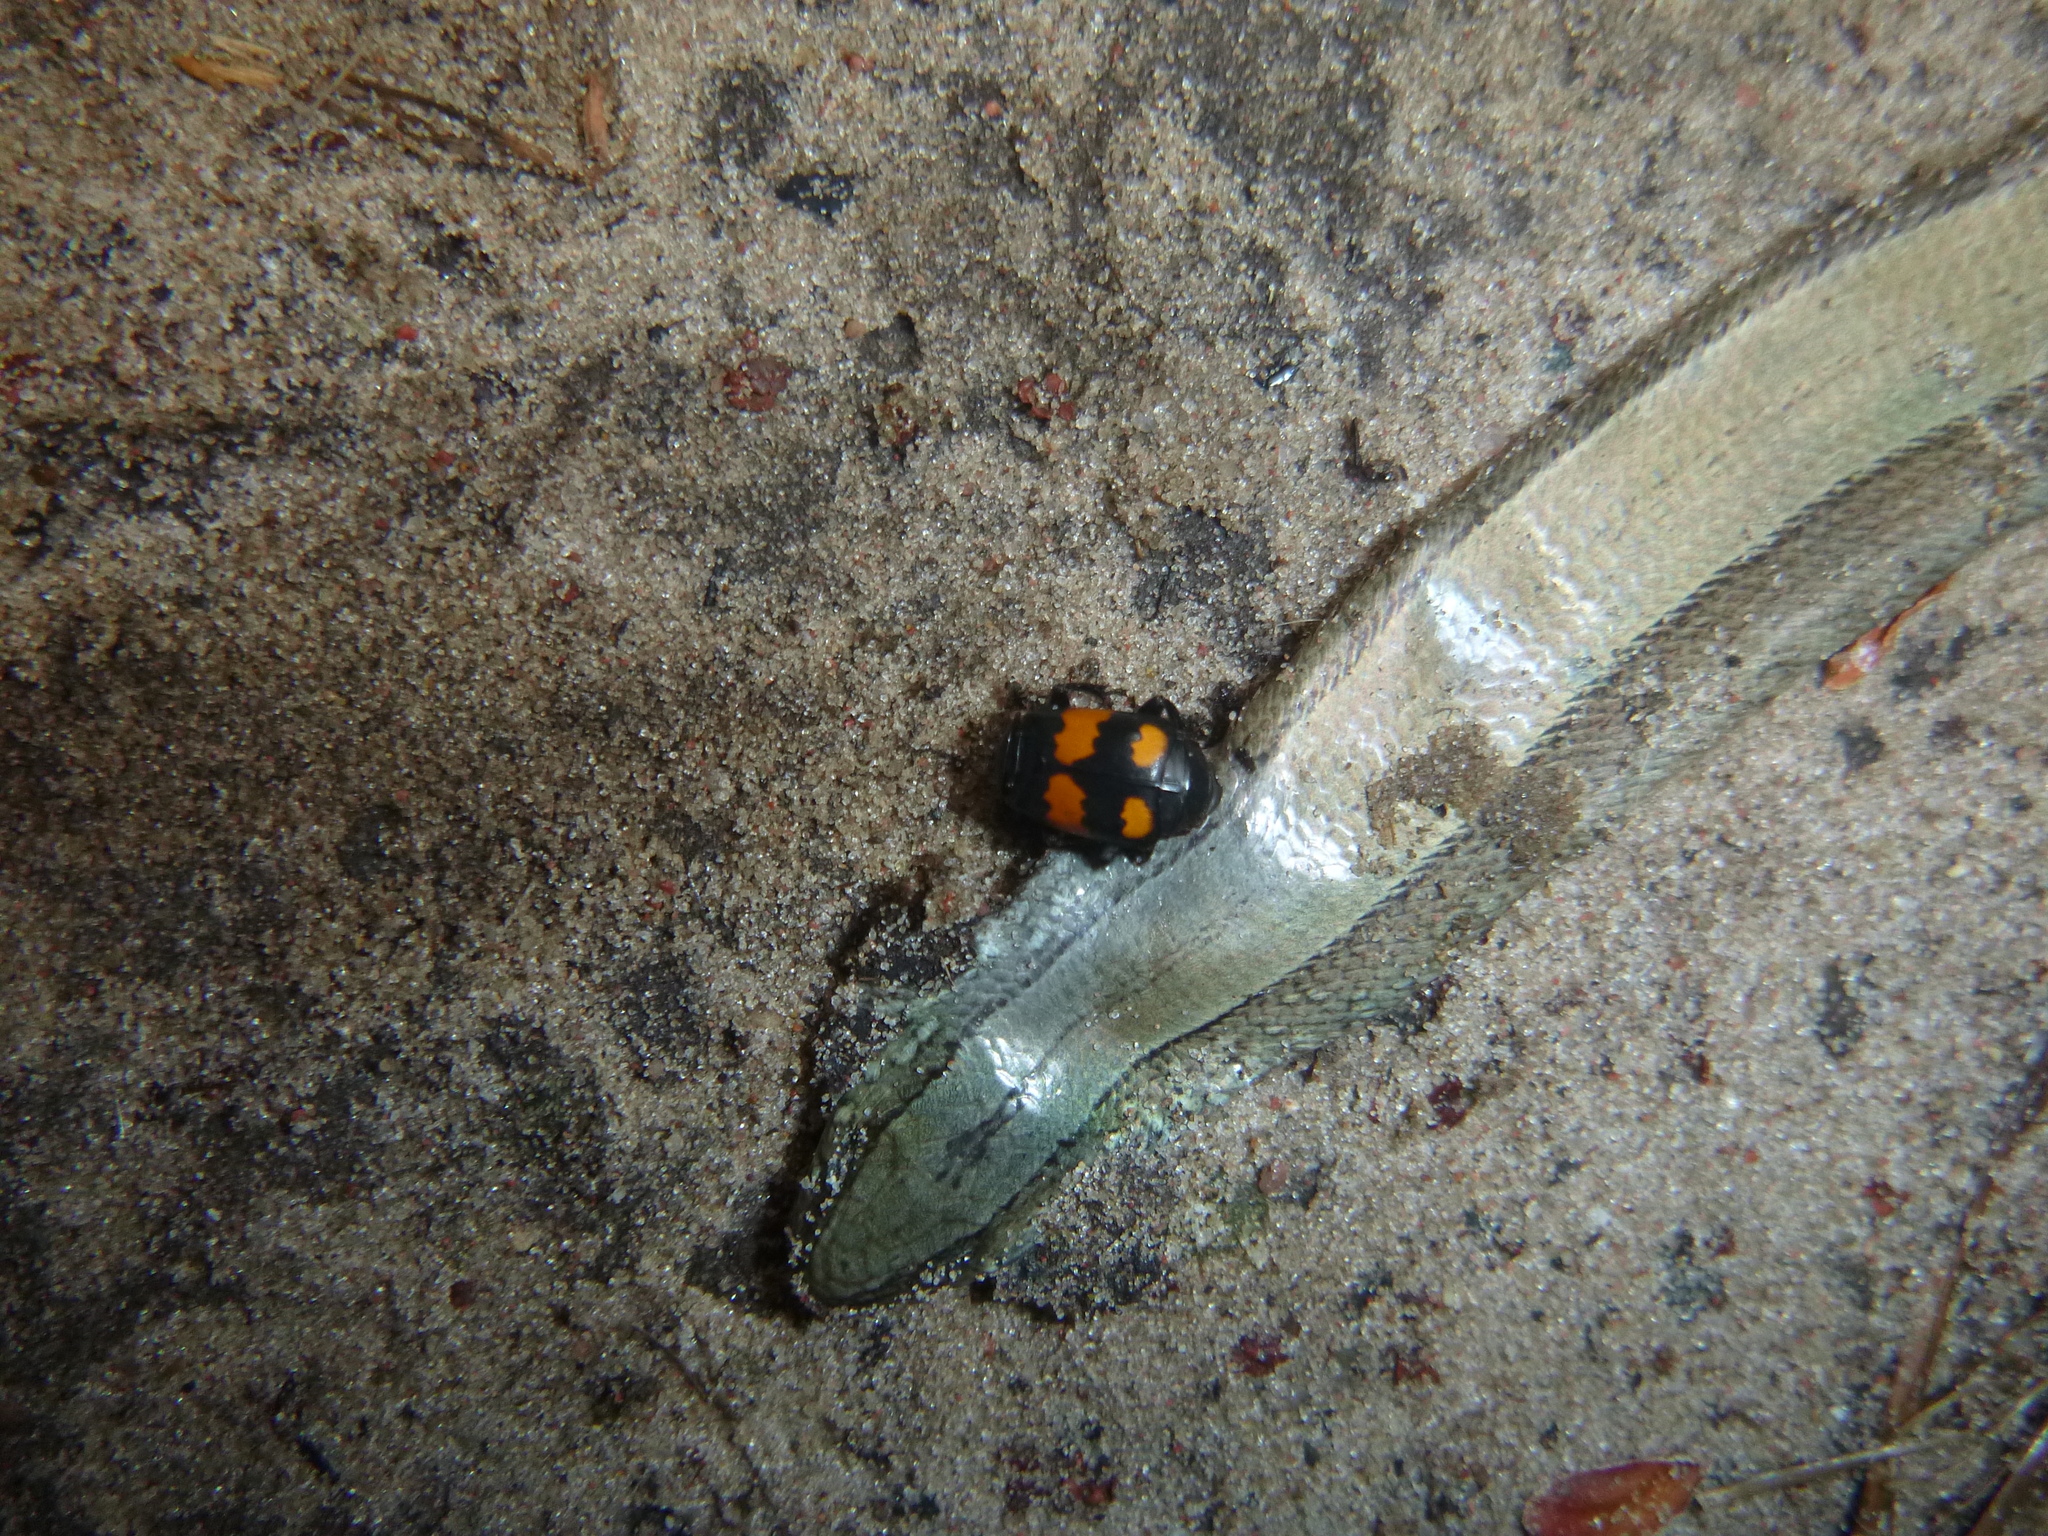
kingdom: Animalia
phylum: Arthropoda
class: Insecta
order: Coleoptera
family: Staphylinidae
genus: Nicrophorus
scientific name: Nicrophorus vespilloides
